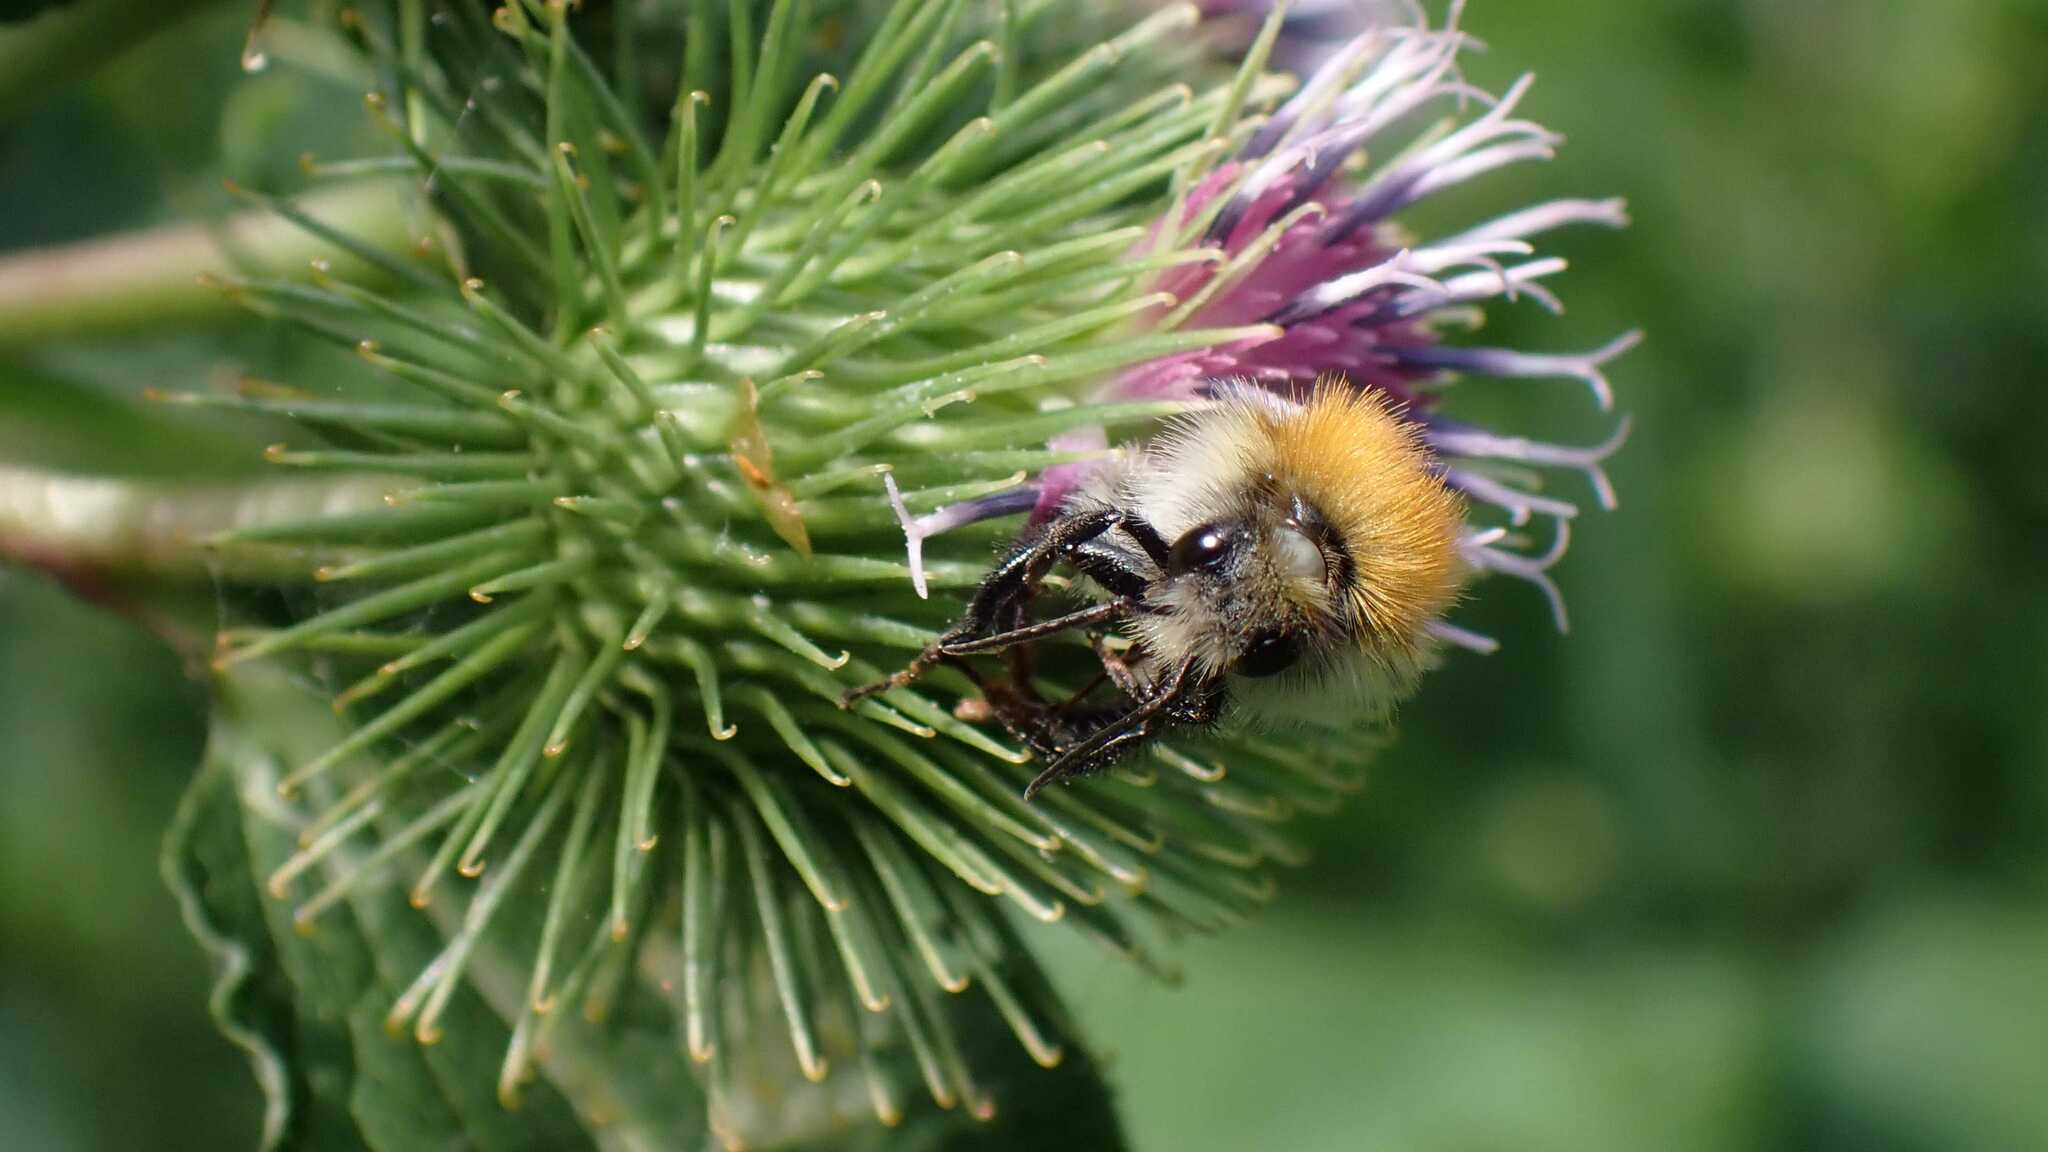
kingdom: Animalia
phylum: Arthropoda
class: Insecta
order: Hymenoptera
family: Apidae
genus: Bombus
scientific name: Bombus pascuorum
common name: Common carder bee
